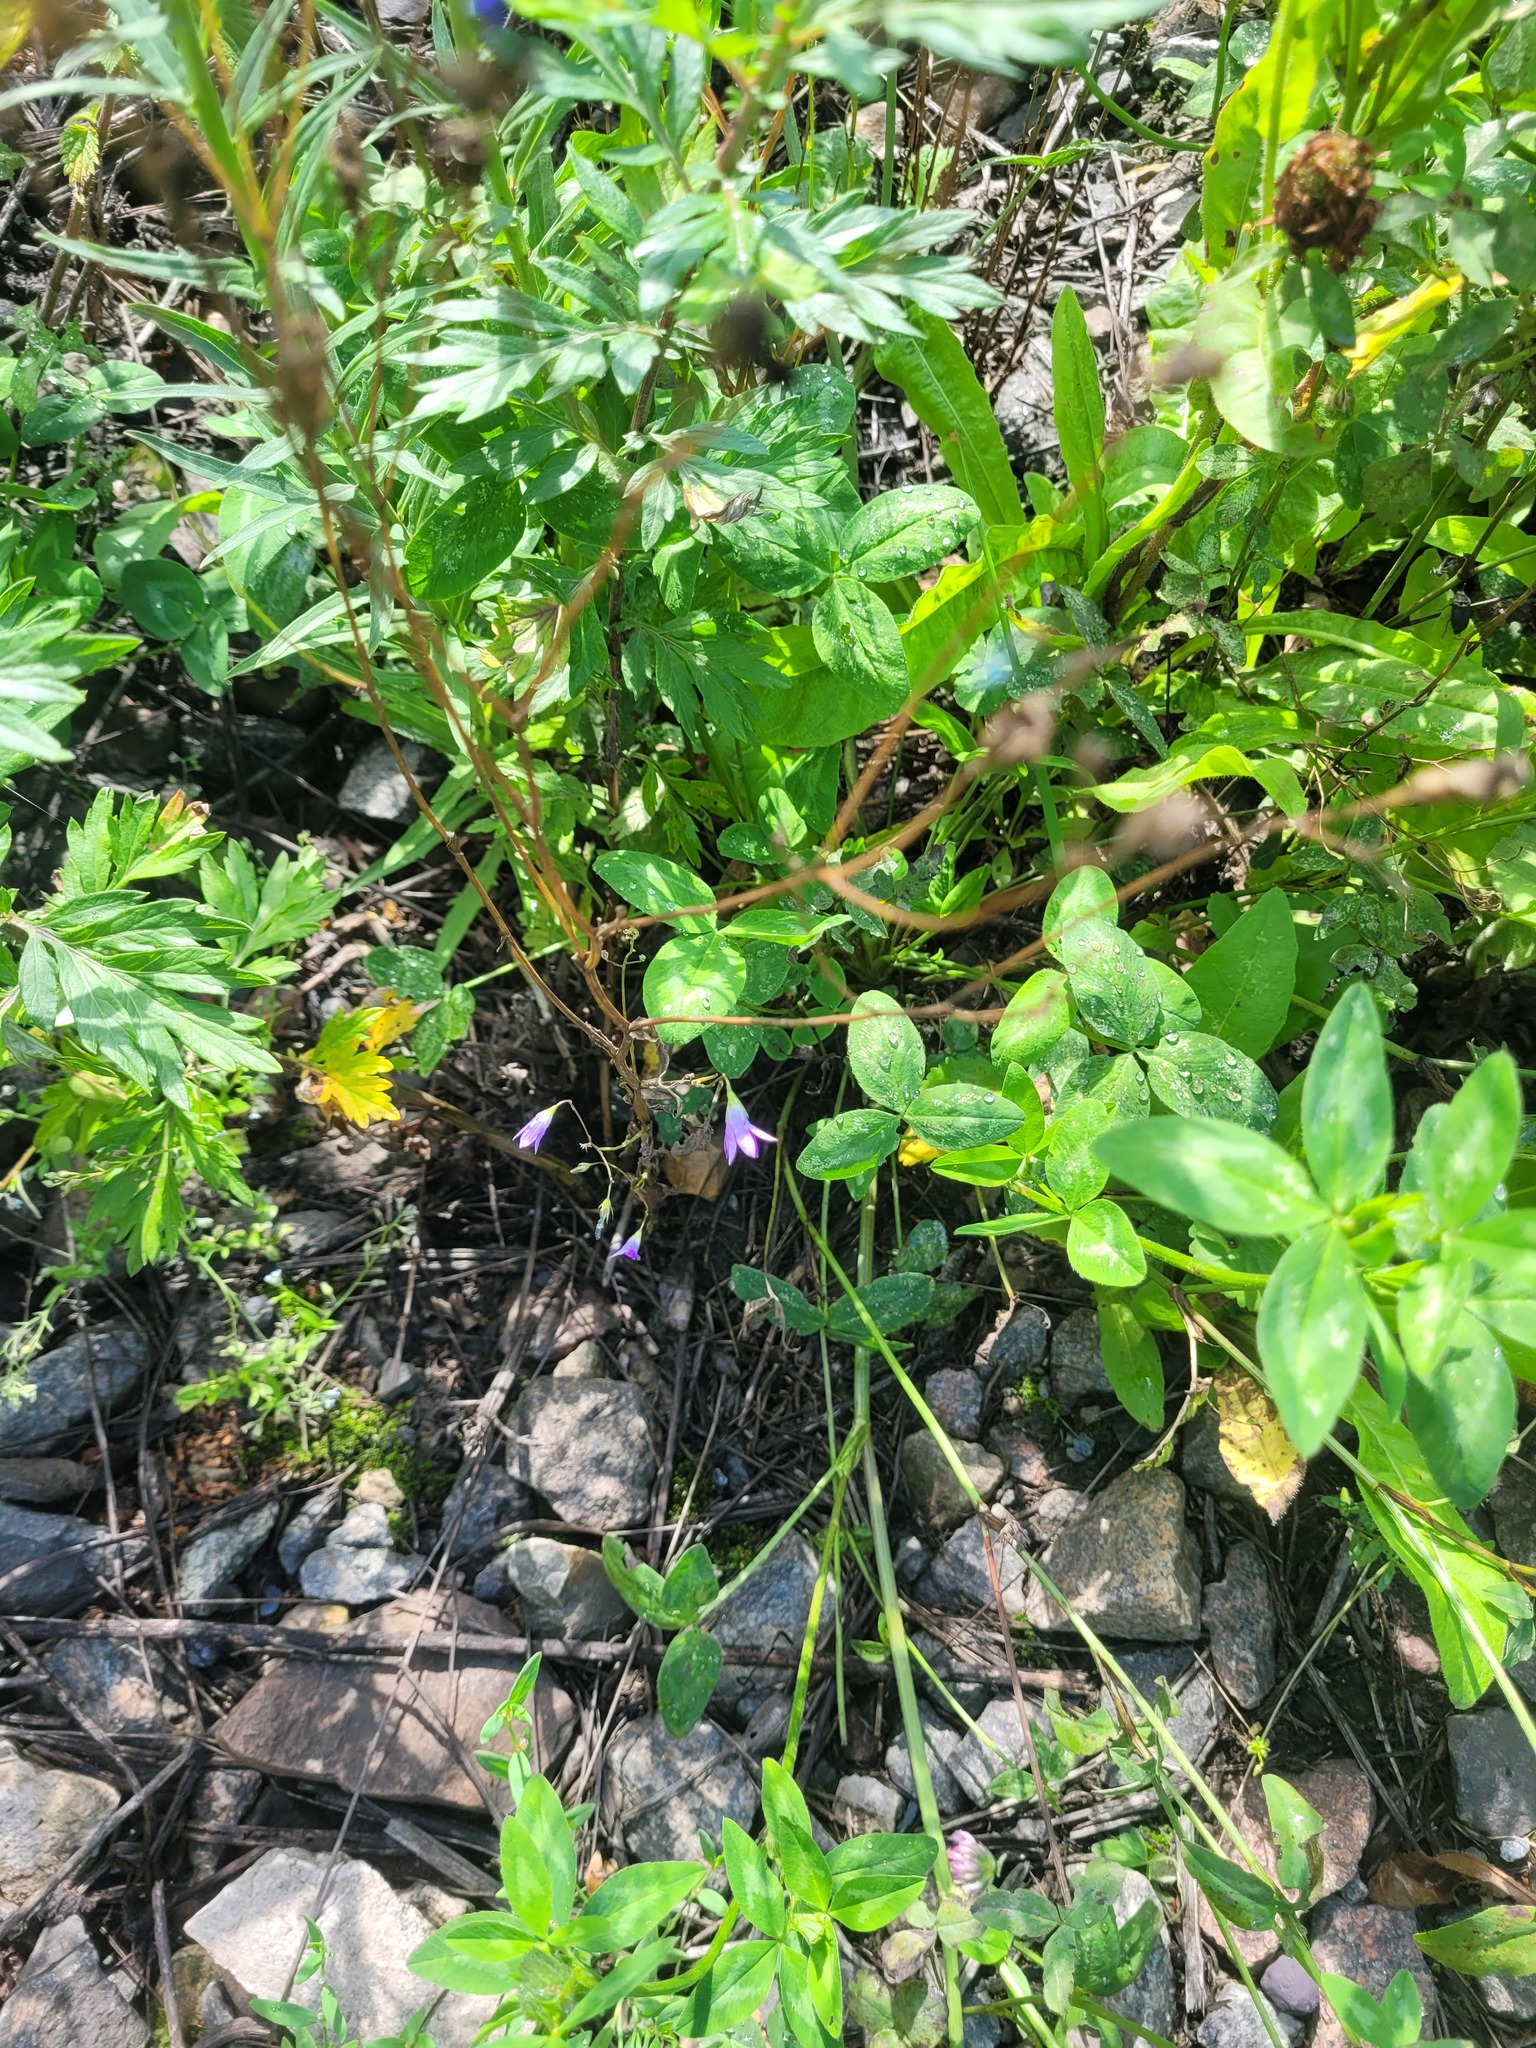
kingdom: Plantae
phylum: Tracheophyta
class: Magnoliopsida
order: Asterales
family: Campanulaceae
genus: Campanula
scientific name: Campanula patula
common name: Spreading bellflower
